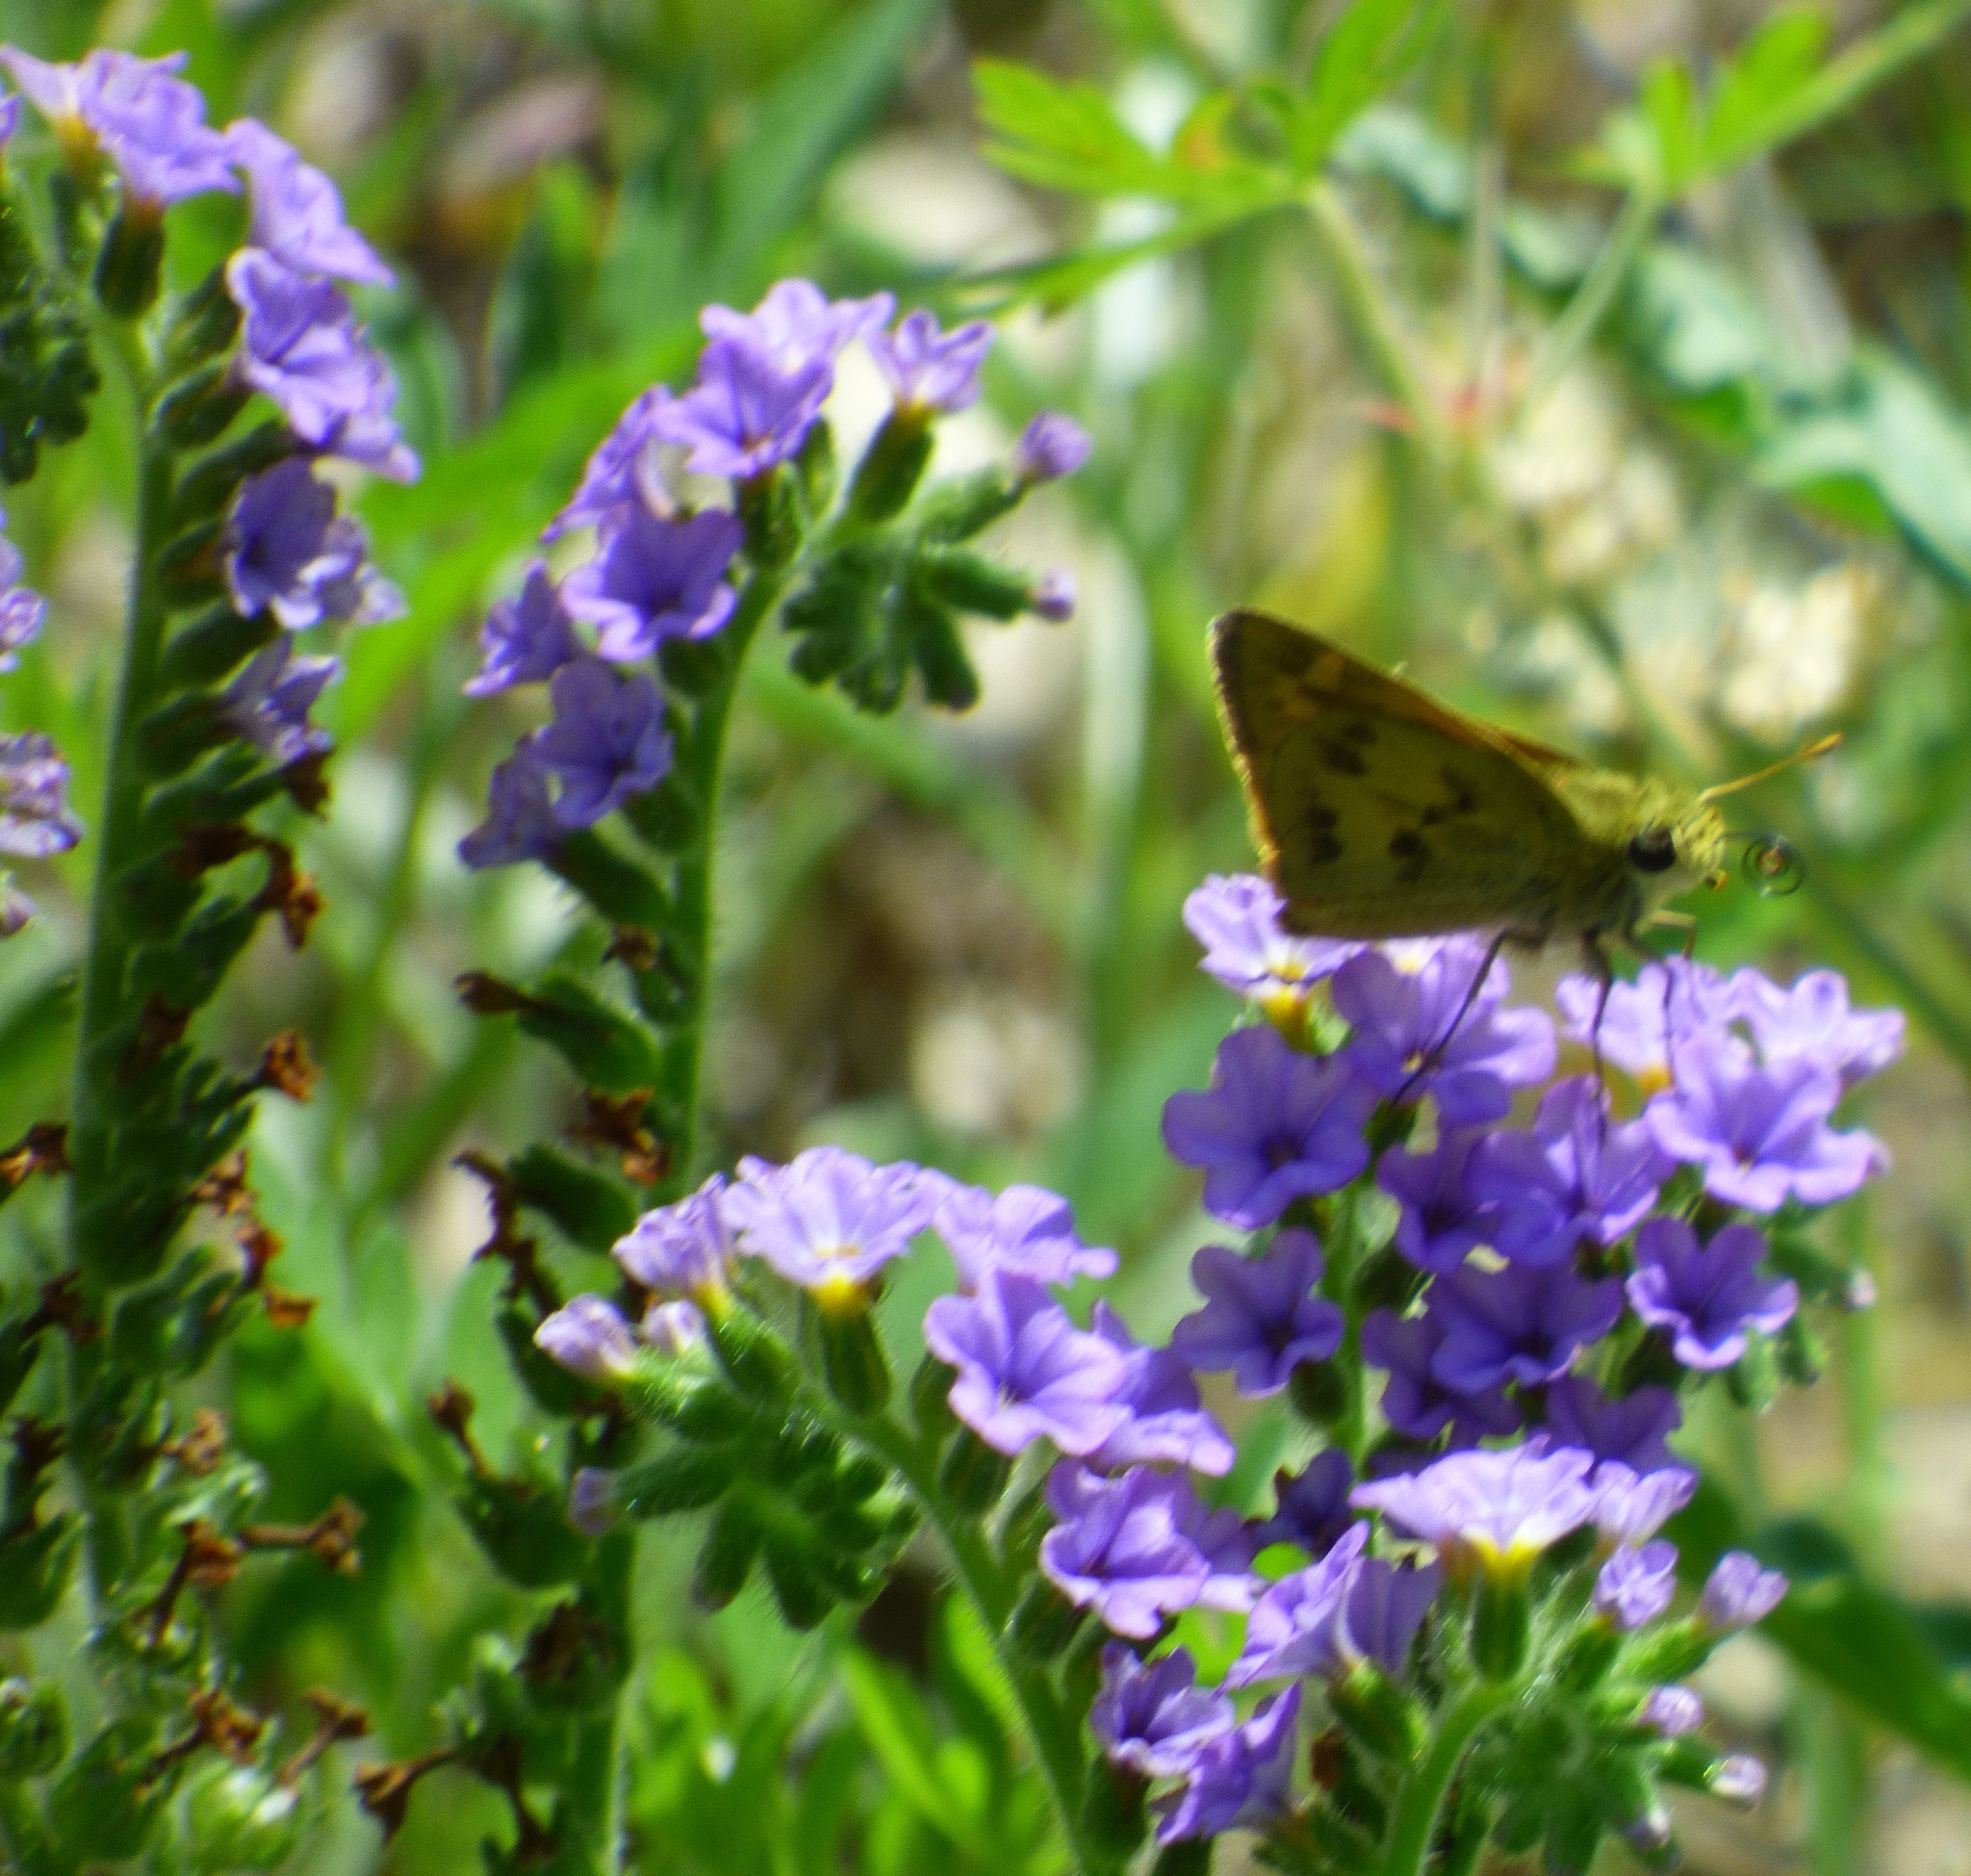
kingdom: Animalia
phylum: Arthropoda
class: Insecta
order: Lepidoptera
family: Hesperiidae
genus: Polites
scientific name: Polites vibex
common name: Whirlabout
